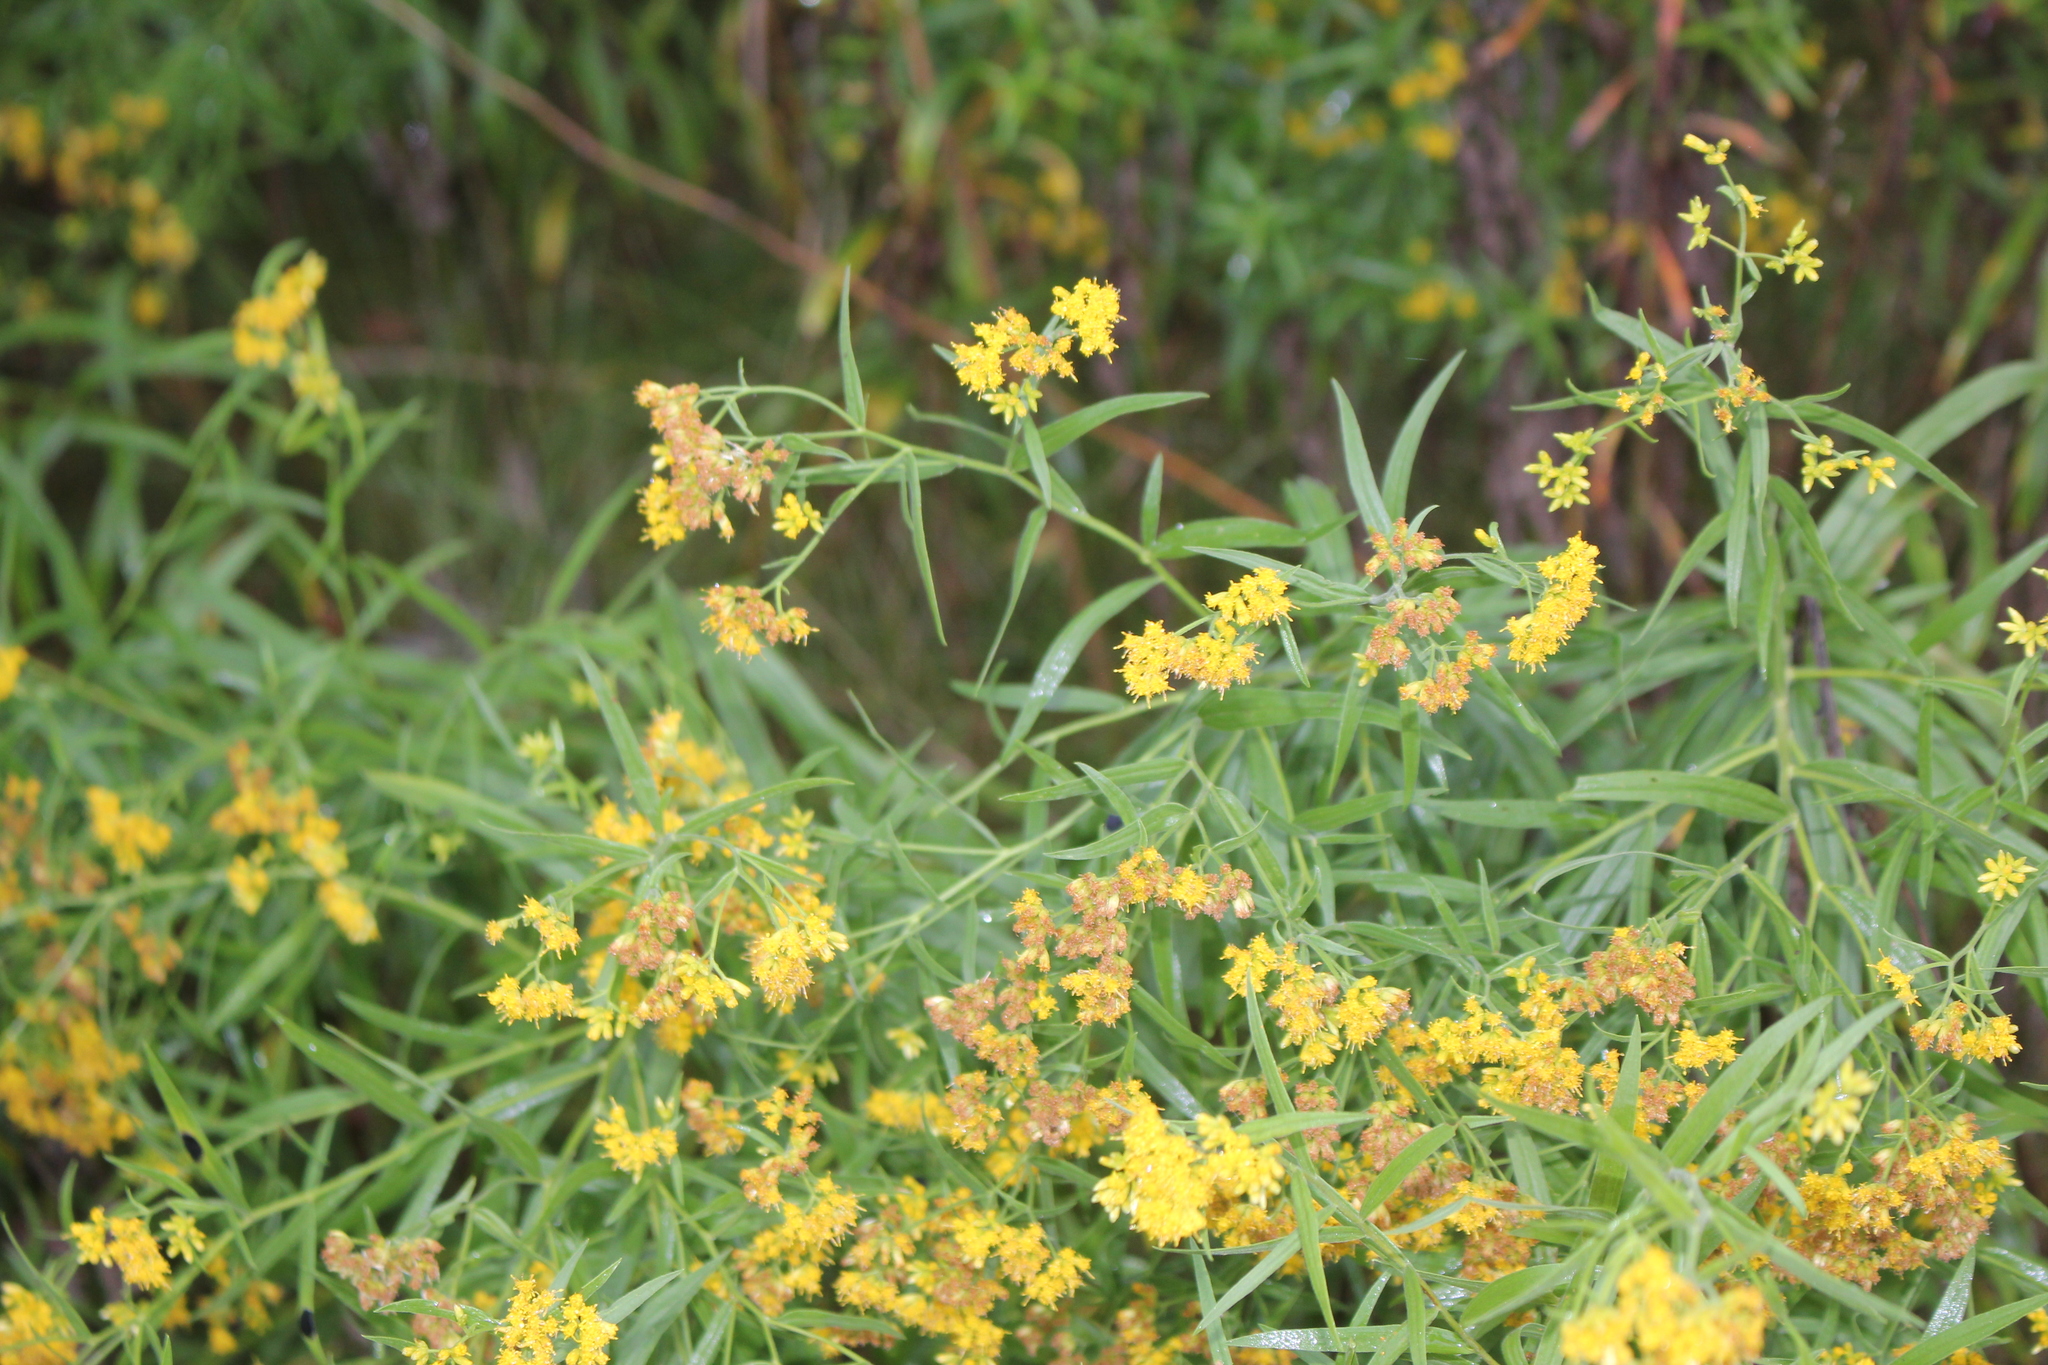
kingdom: Plantae
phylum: Tracheophyta
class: Magnoliopsida
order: Asterales
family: Asteraceae
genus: Euthamia
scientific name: Euthamia graminifolia
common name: Common goldentop
